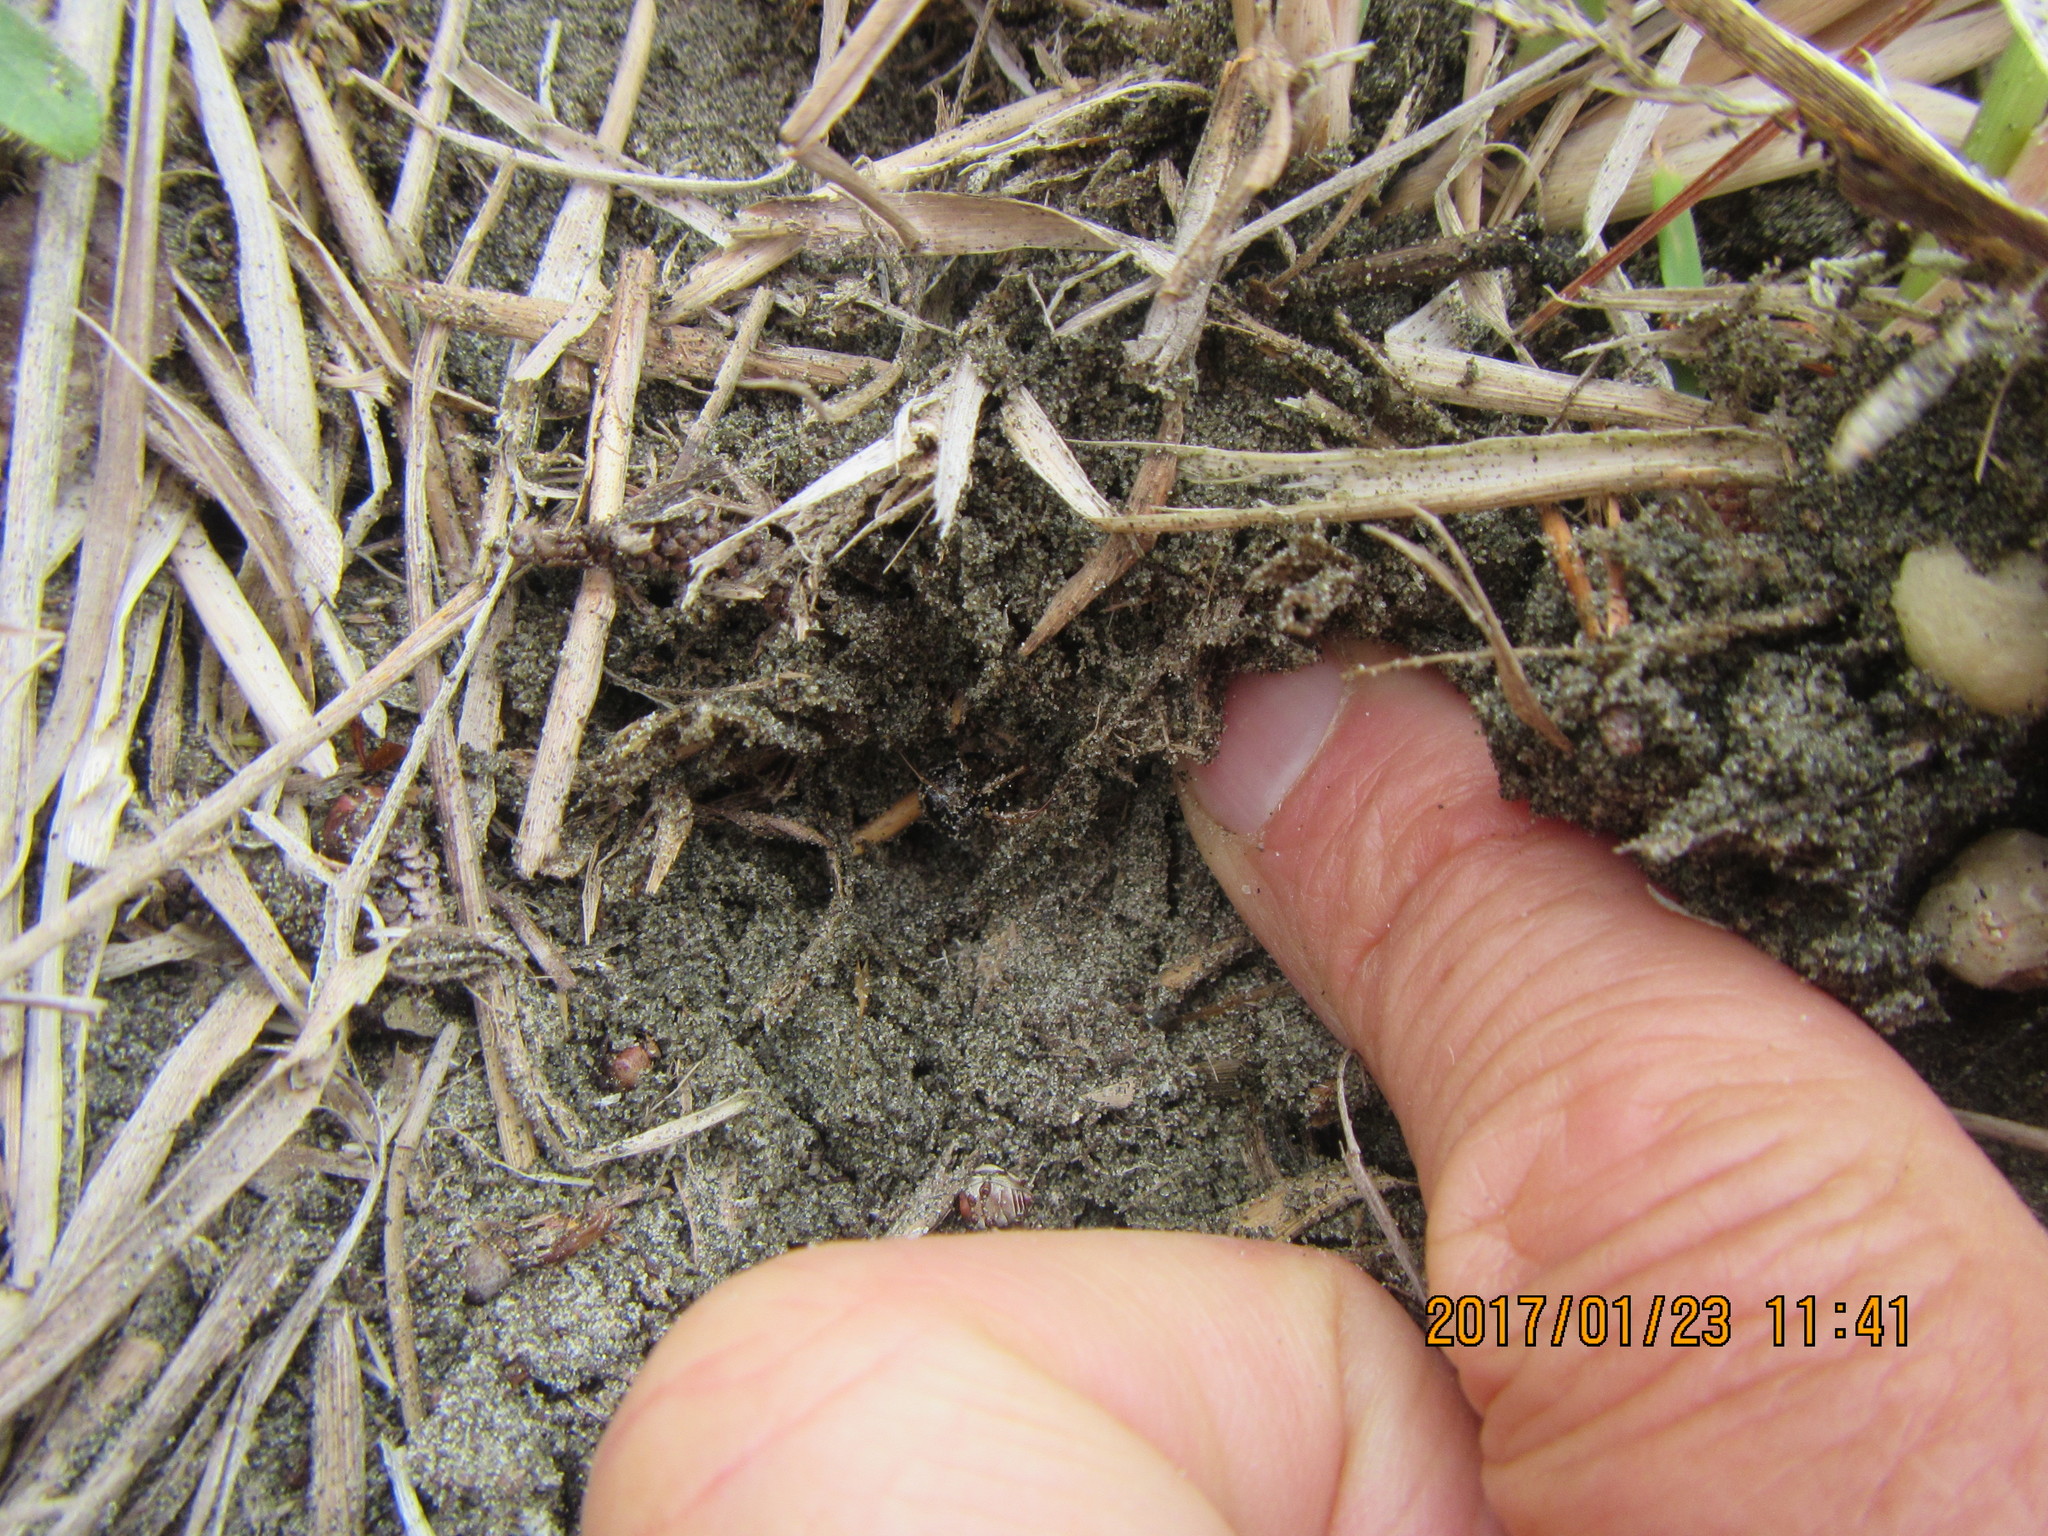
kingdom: Animalia
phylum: Arthropoda
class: Arachnida
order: Araneae
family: Mimetidae
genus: Australomimetus
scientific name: Australomimetus hartleyensis
